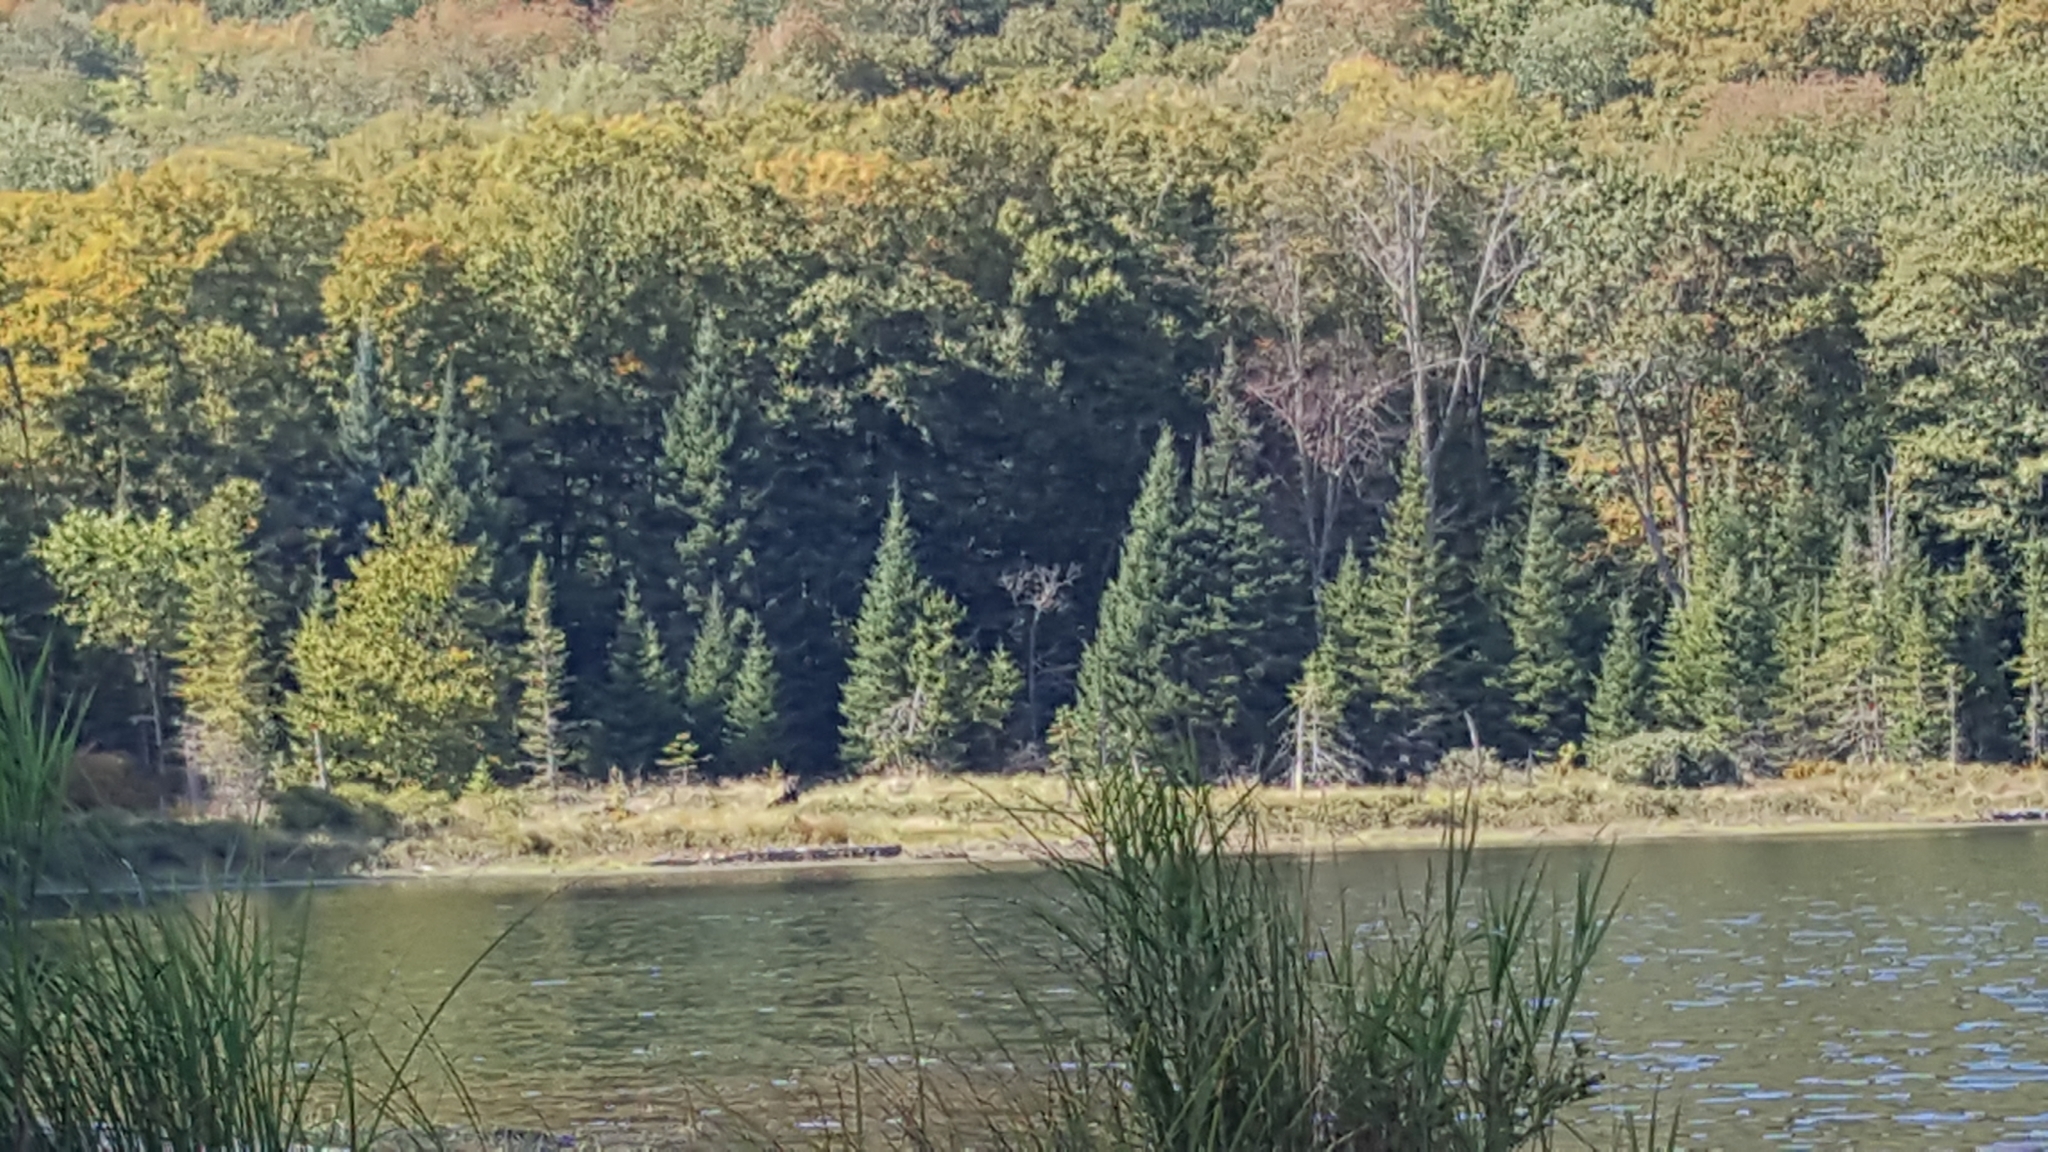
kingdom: Plantae
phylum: Tracheophyta
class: Pinopsida
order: Pinales
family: Pinaceae
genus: Abies
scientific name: Abies balsamea
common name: Balsam fir
